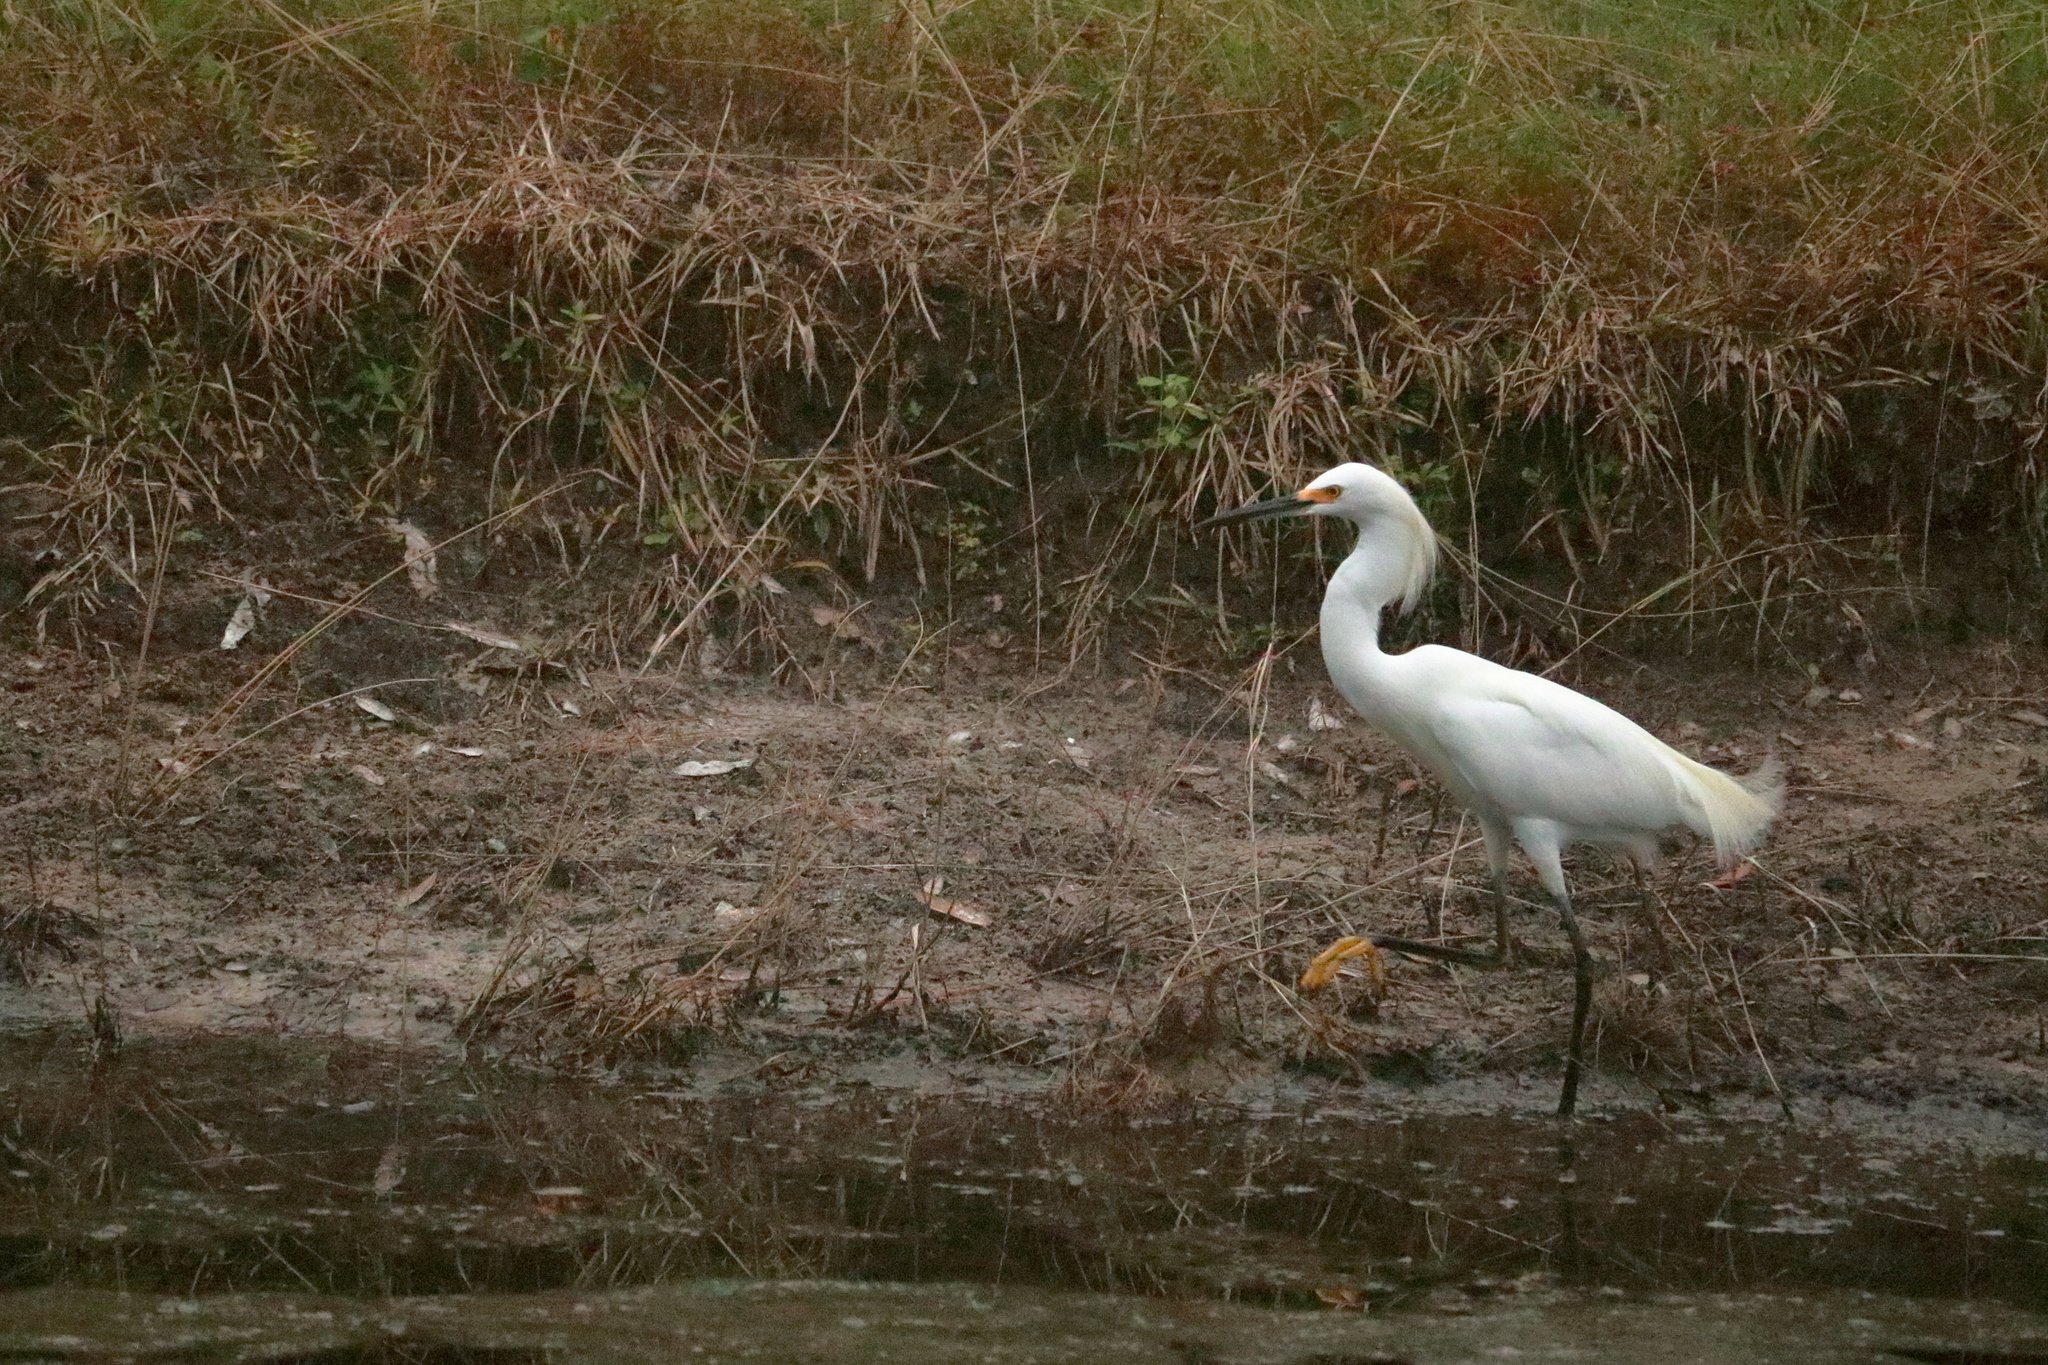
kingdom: Animalia
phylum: Chordata
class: Aves
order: Pelecaniformes
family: Ardeidae
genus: Egretta
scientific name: Egretta thula
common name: Snowy egret
